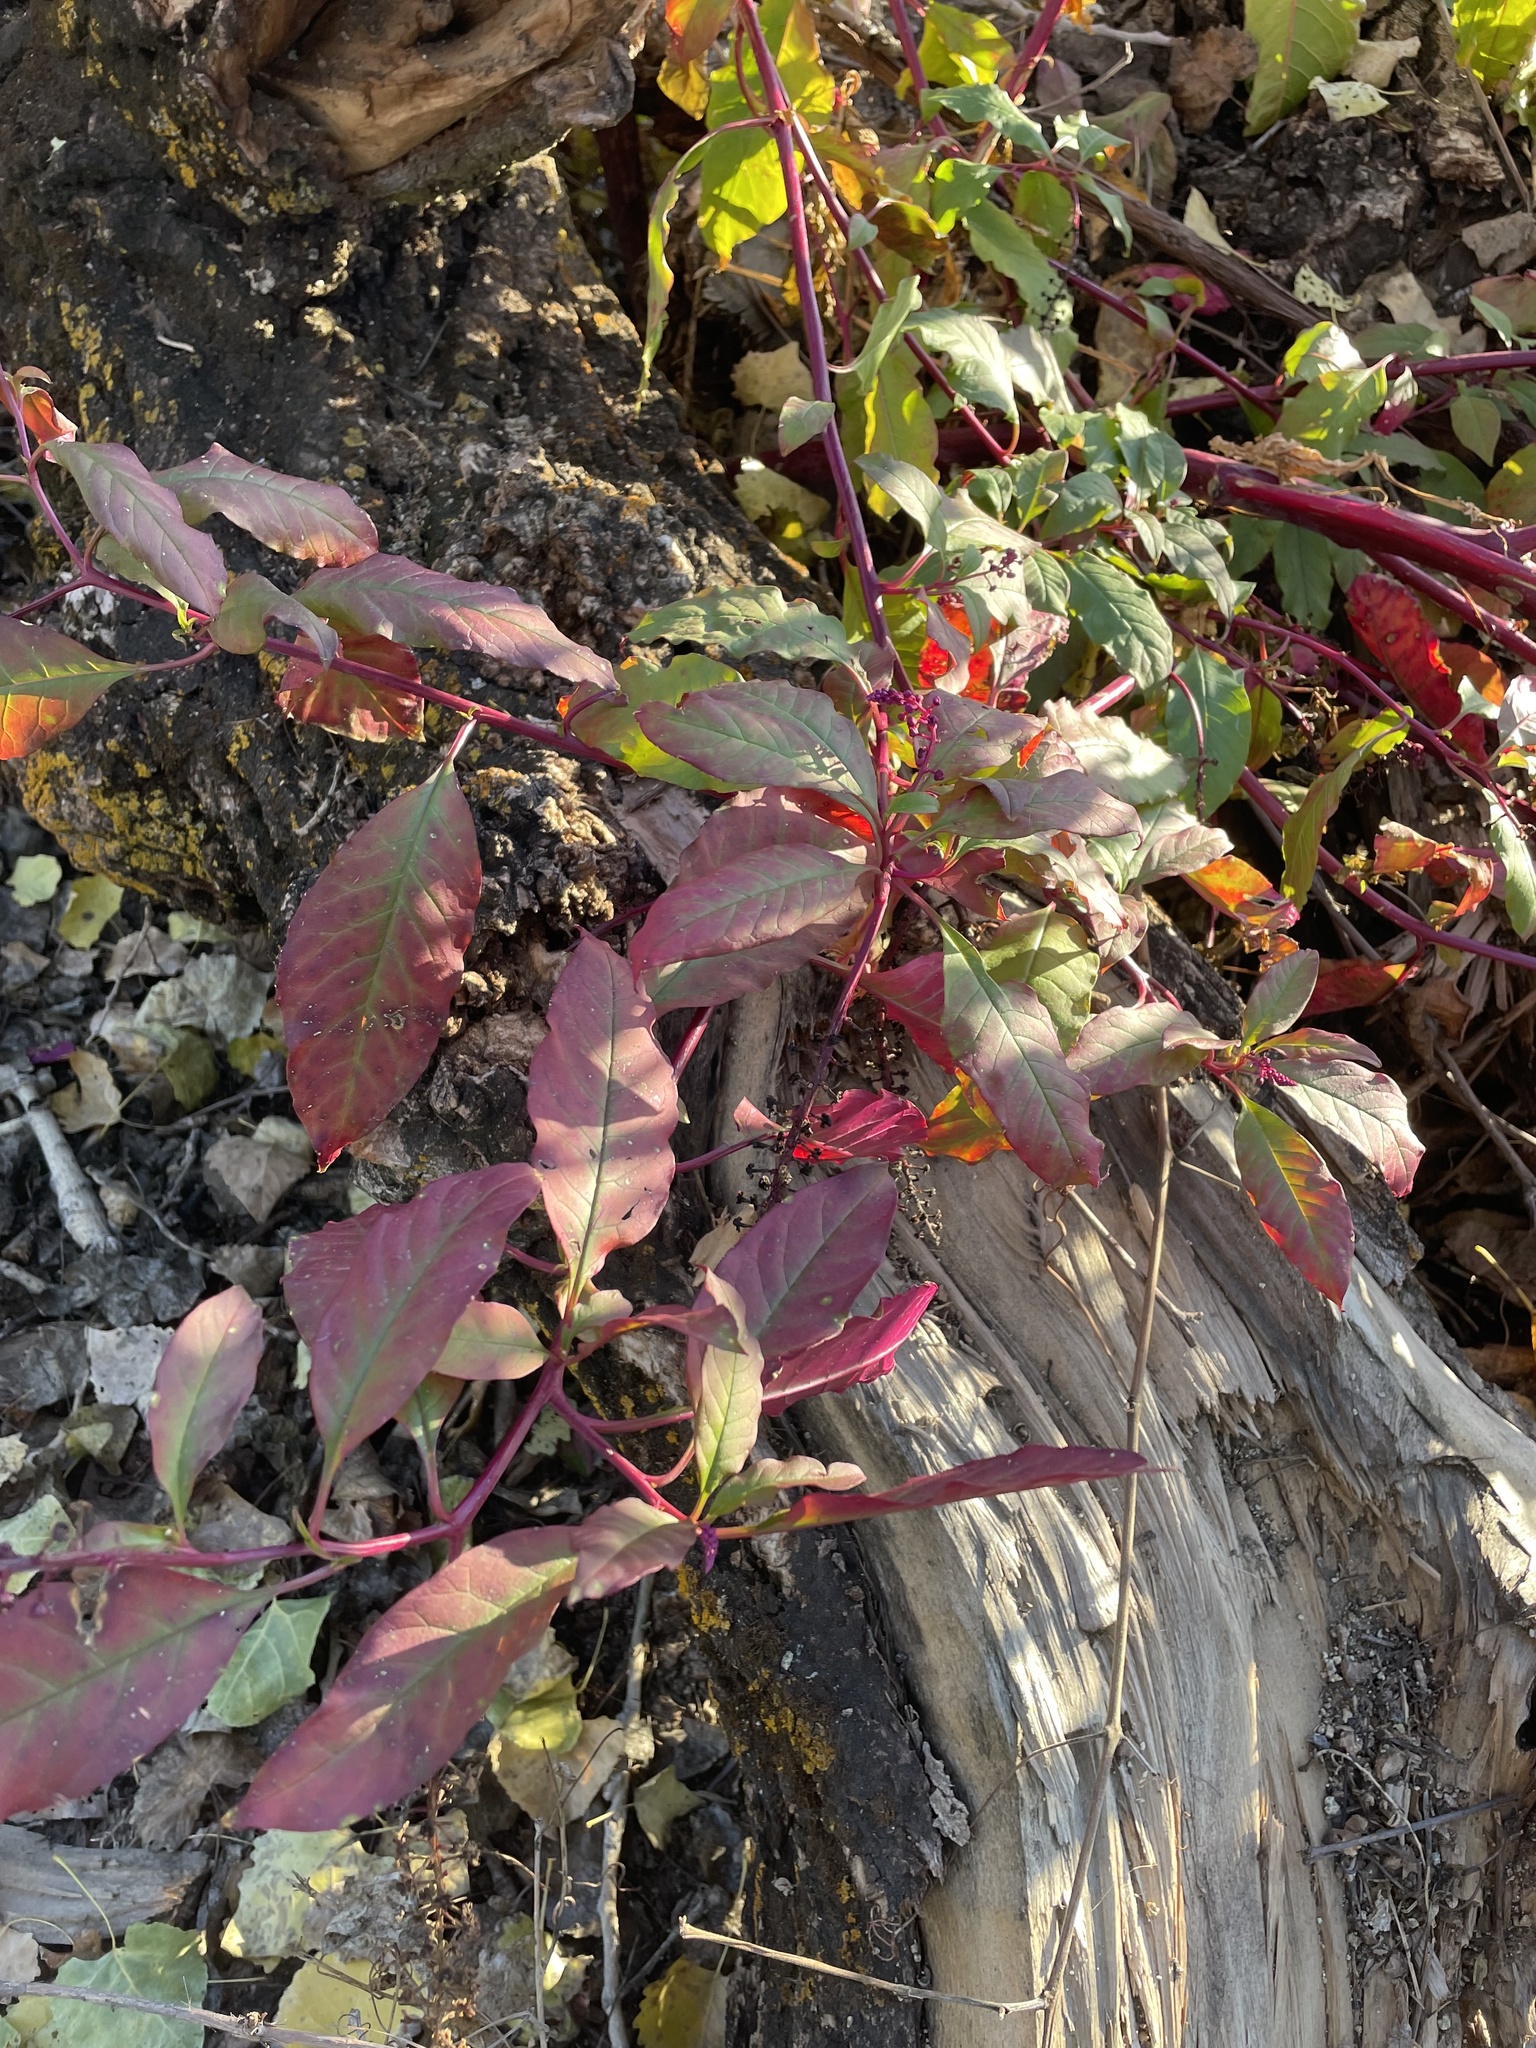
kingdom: Plantae
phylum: Tracheophyta
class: Magnoliopsida
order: Caryophyllales
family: Phytolaccaceae
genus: Phytolacca
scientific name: Phytolacca americana
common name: American pokeweed
